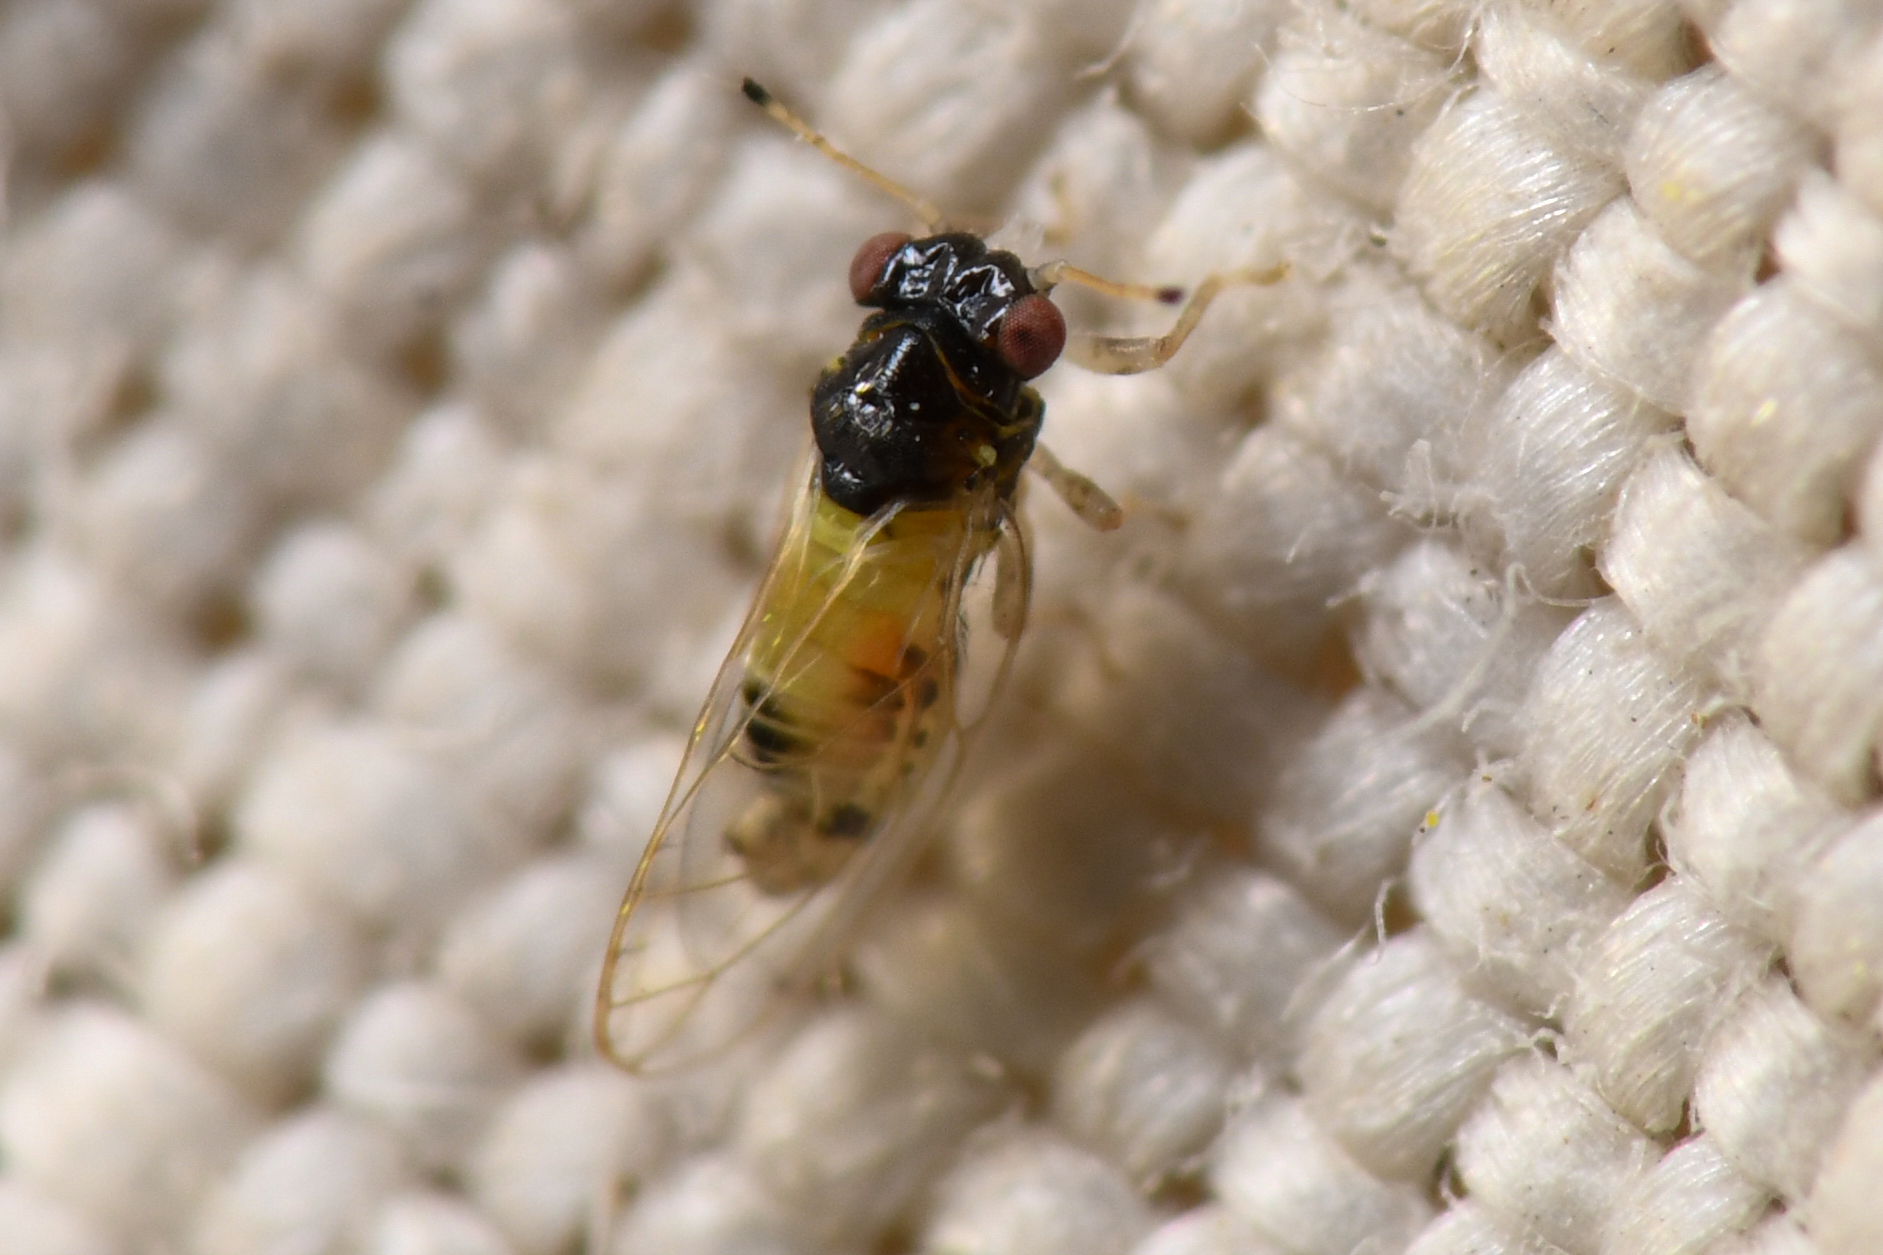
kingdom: Animalia
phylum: Arthropoda
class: Insecta
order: Hemiptera
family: Calophyidae
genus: Calophya
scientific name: Calophya californica
